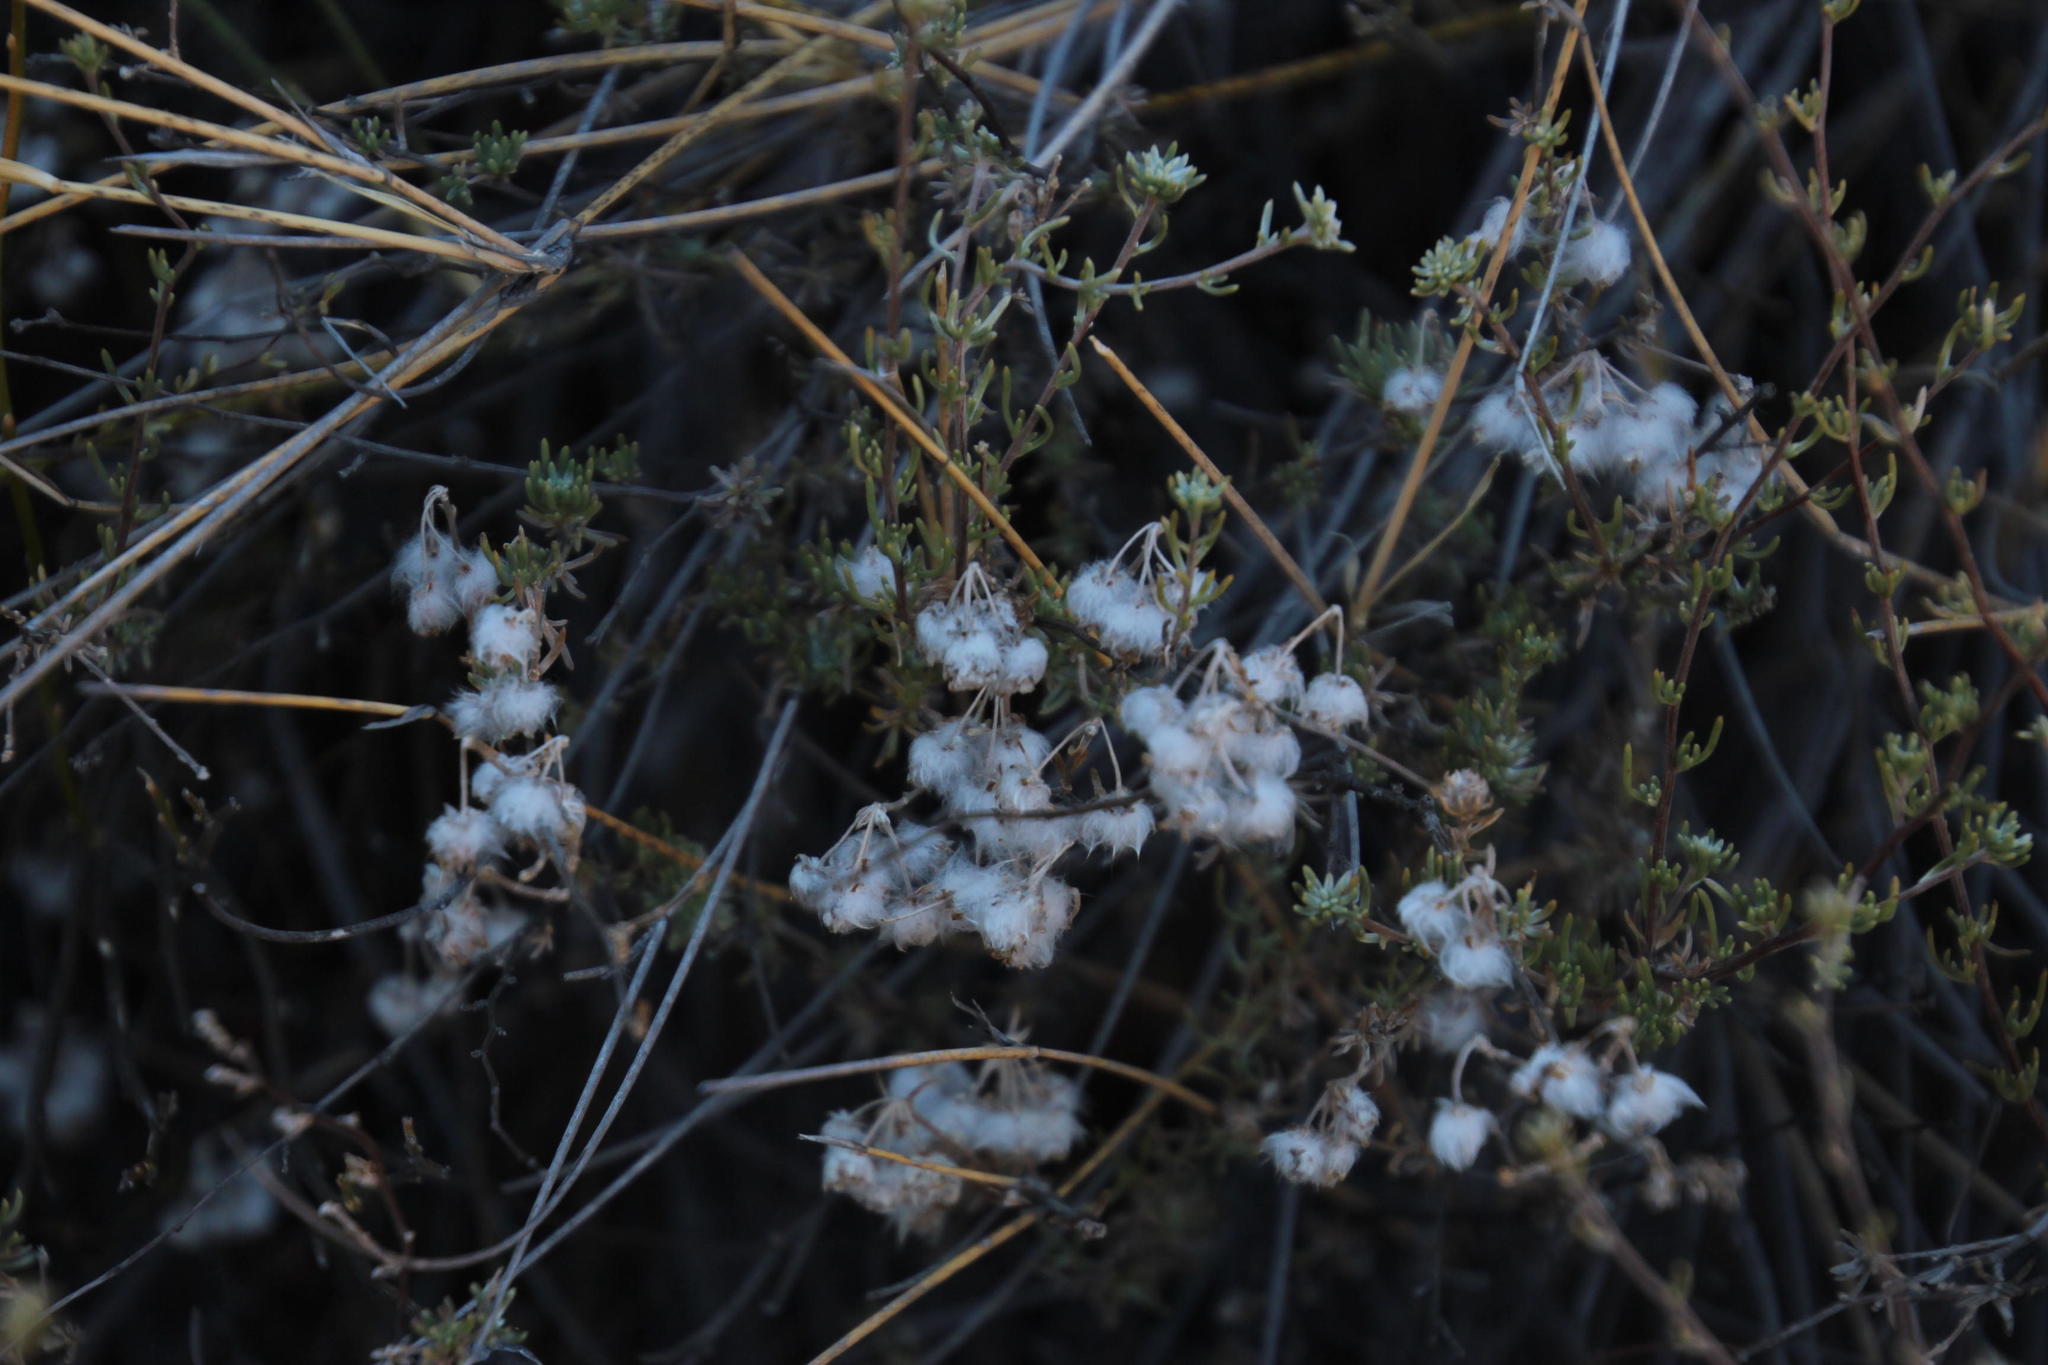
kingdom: Plantae
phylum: Tracheophyta
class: Magnoliopsida
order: Asterales
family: Asteraceae
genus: Eriocephalus
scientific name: Eriocephalus africanus
